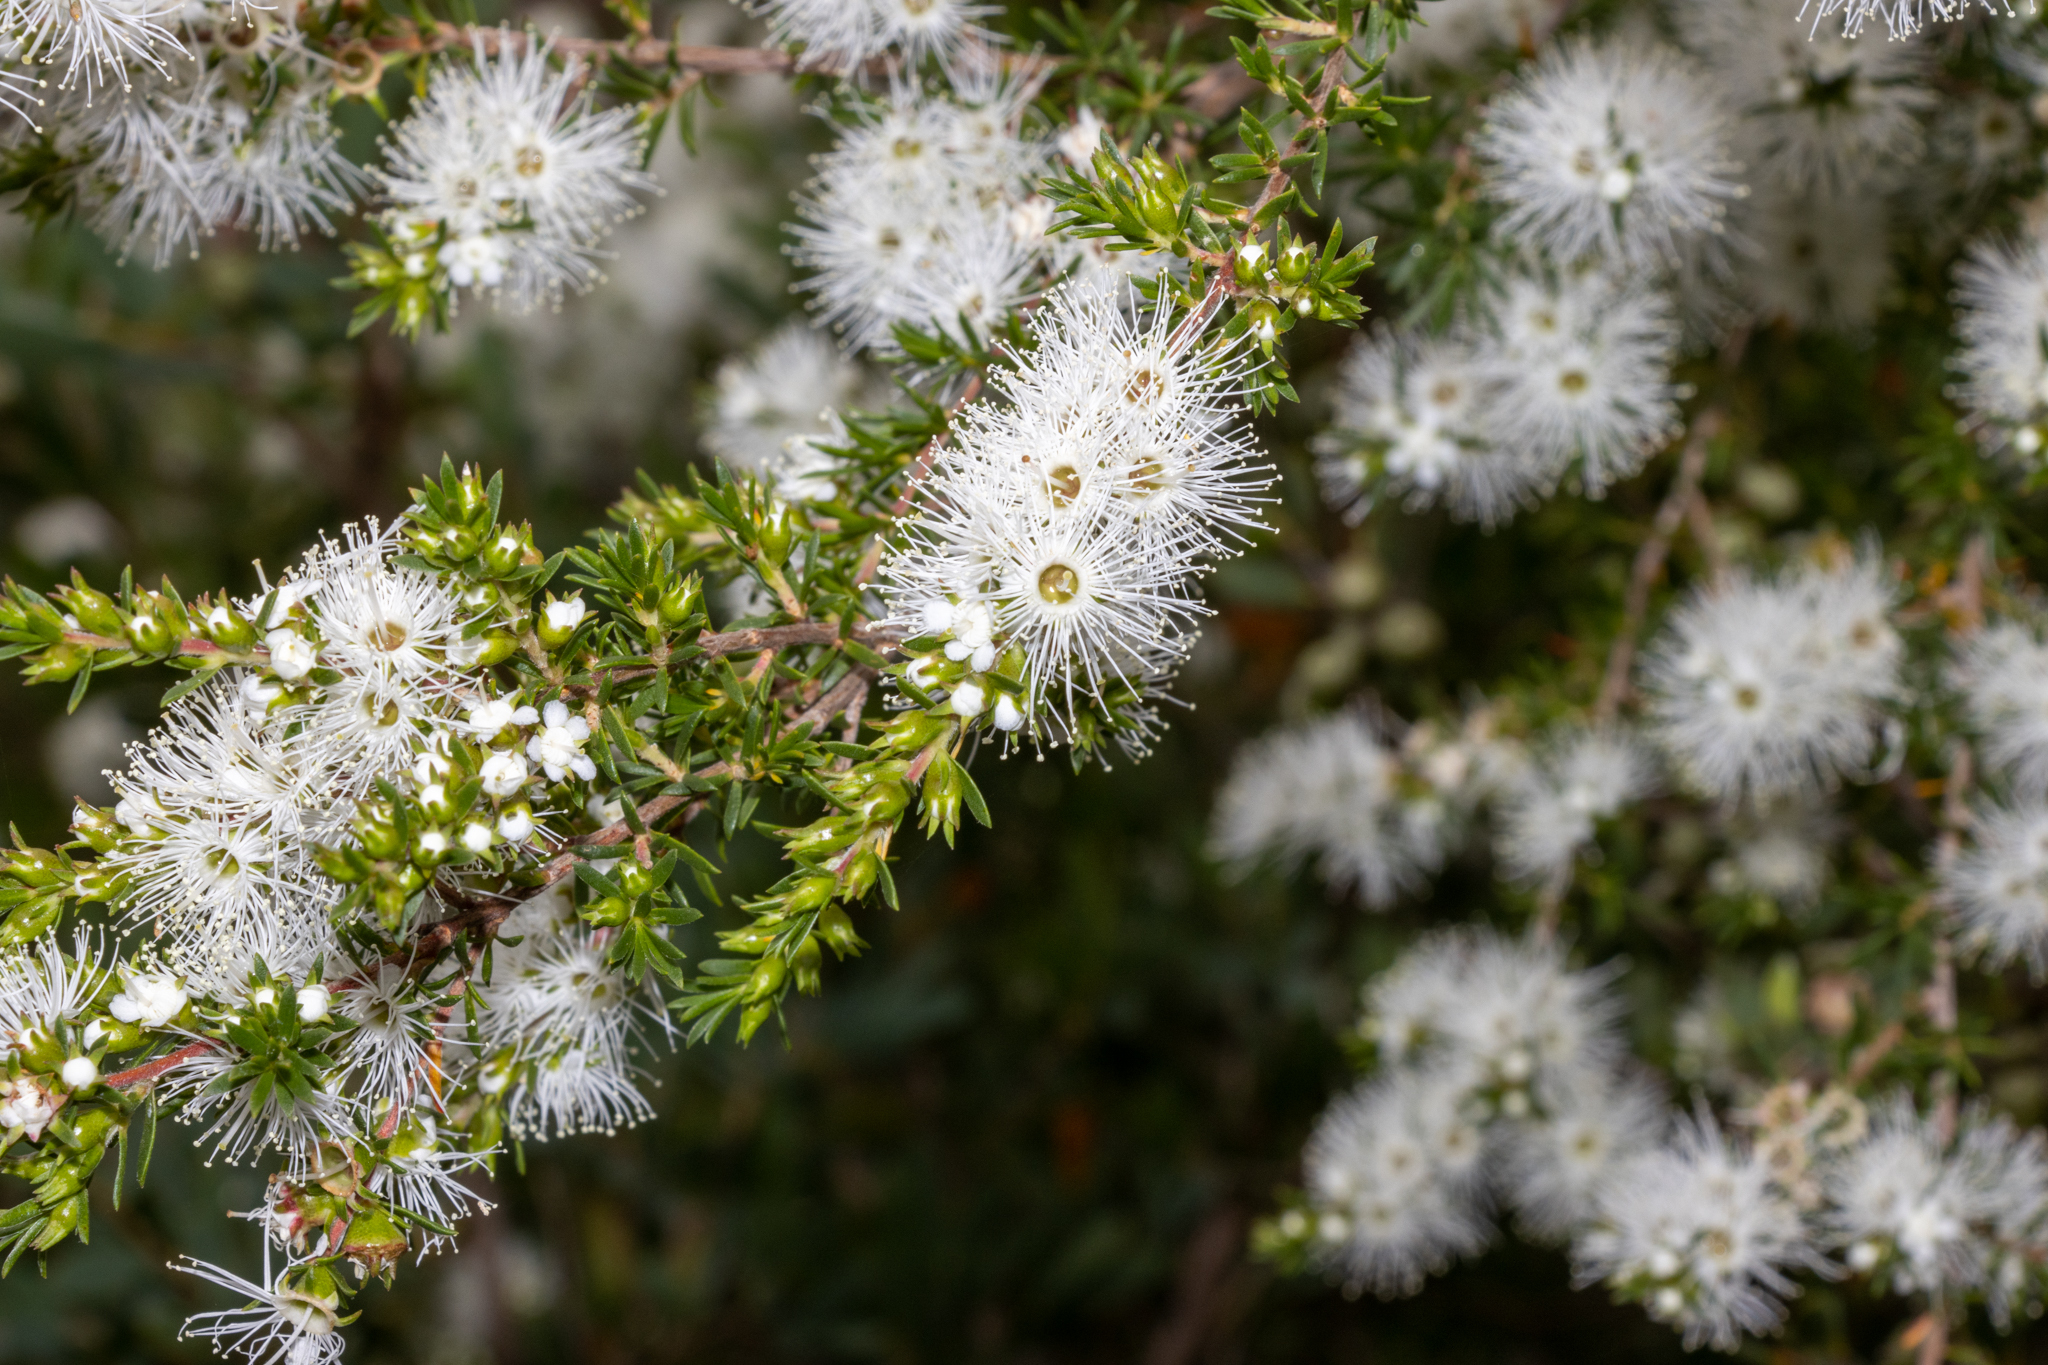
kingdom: Plantae
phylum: Tracheophyta
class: Magnoliopsida
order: Myrtales
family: Myrtaceae
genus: Kunzea
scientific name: Kunzea ambigua
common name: Tickbush
